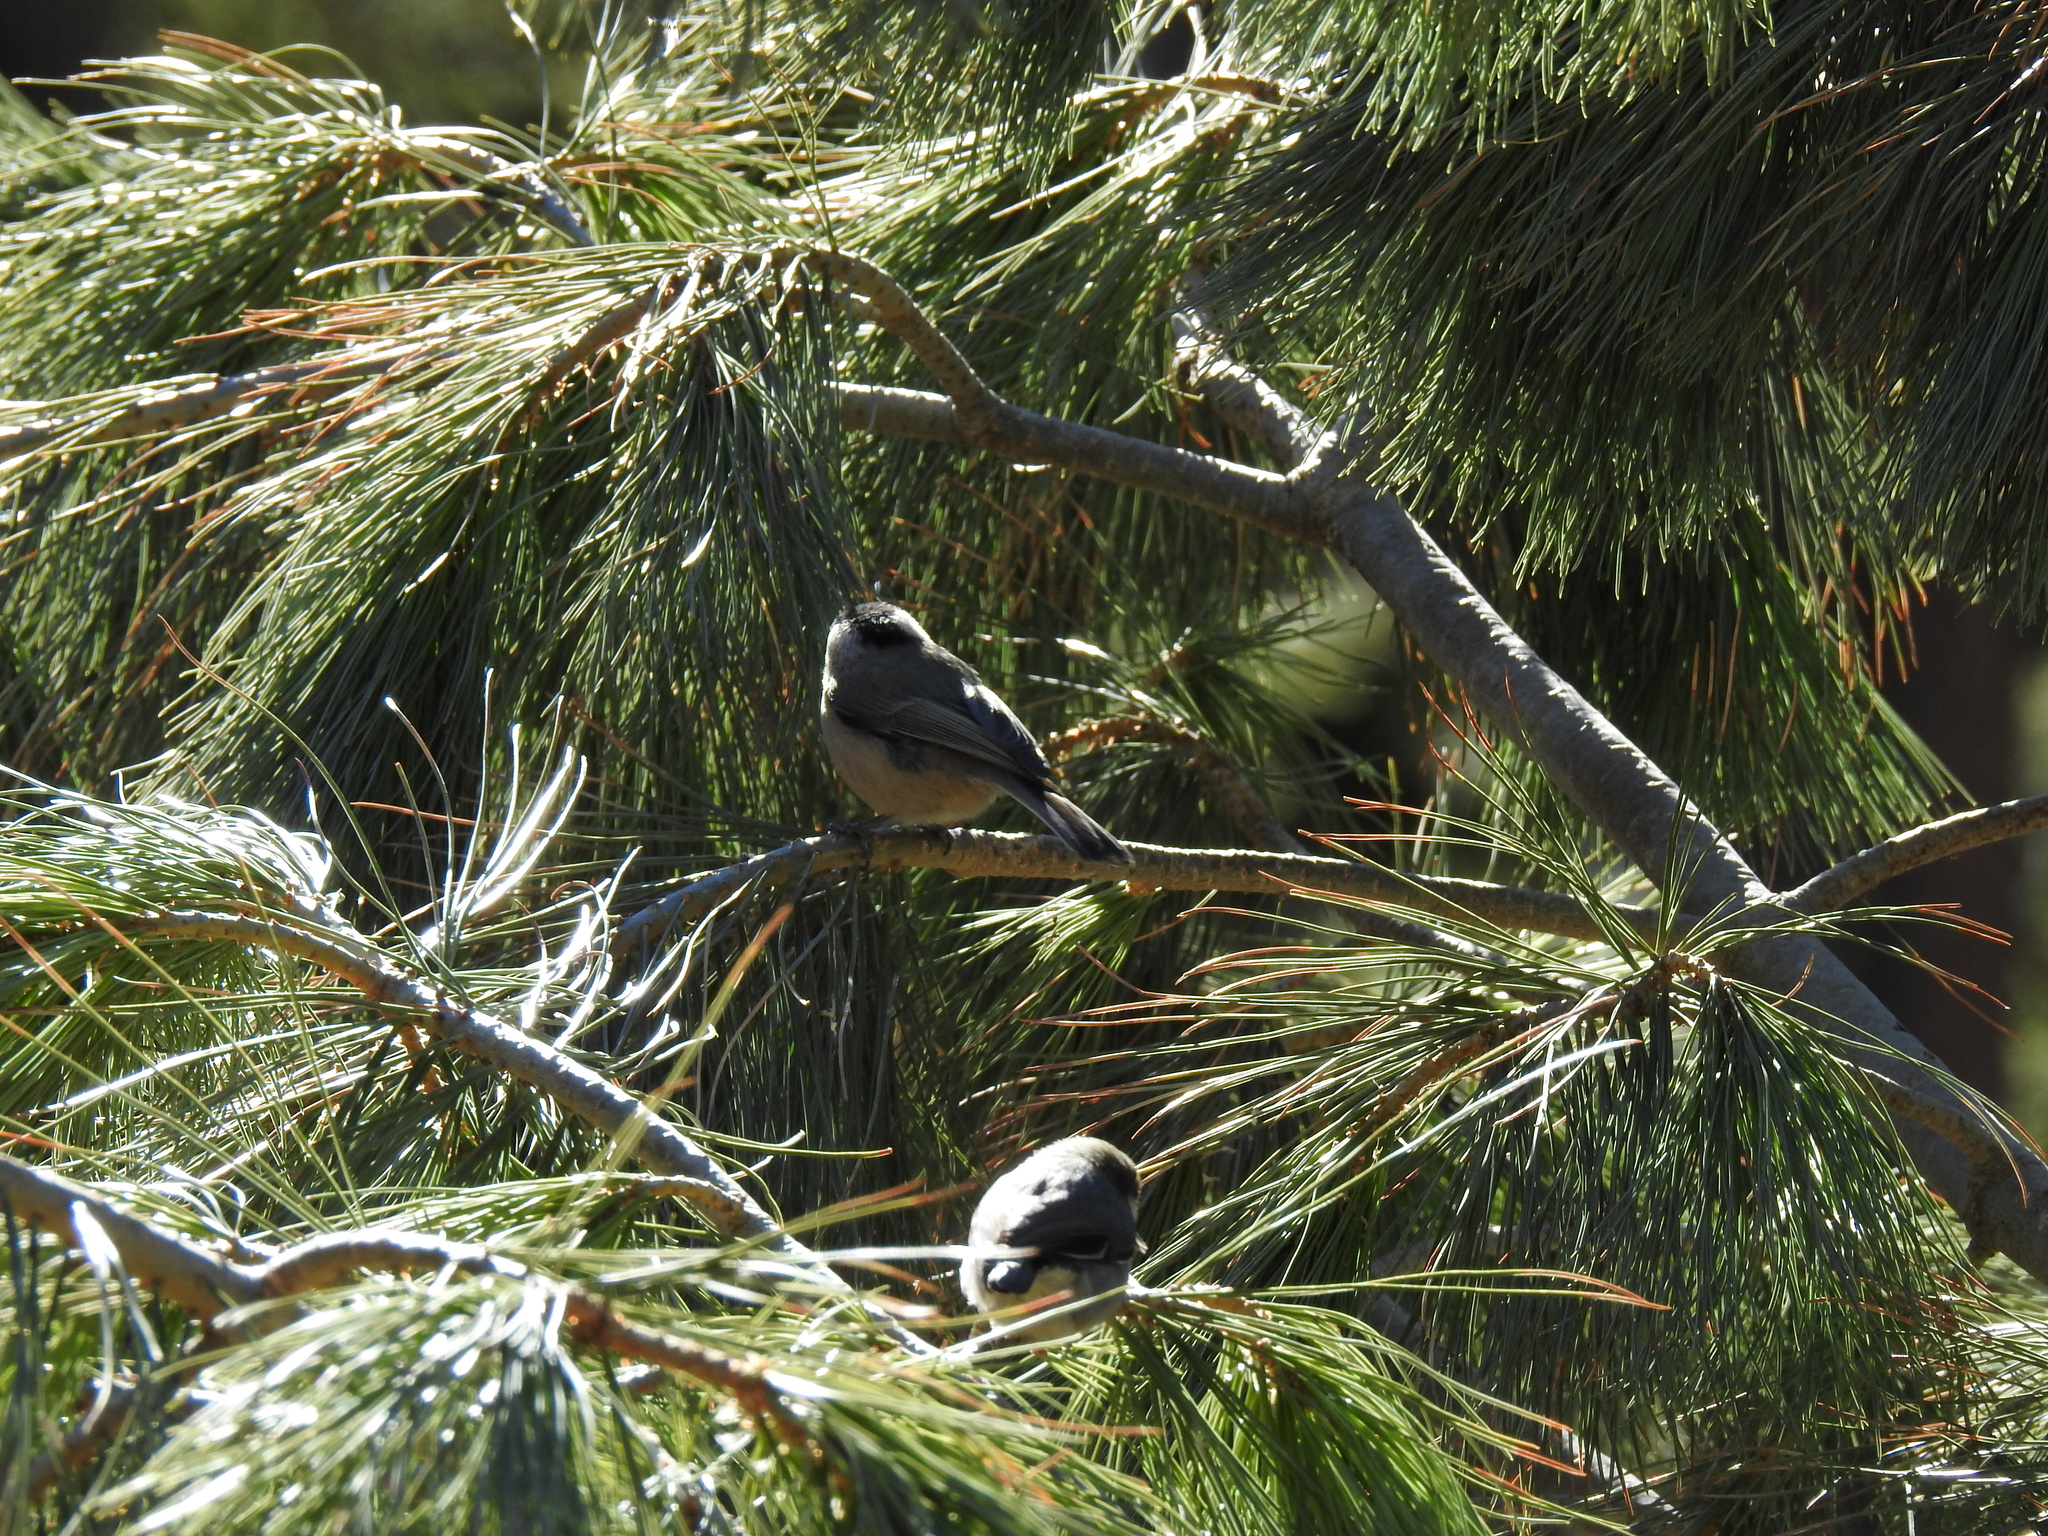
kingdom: Animalia
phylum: Chordata
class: Aves
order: Passeriformes
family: Paridae
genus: Poecile
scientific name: Poecile gambeli
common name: Mountain chickadee
